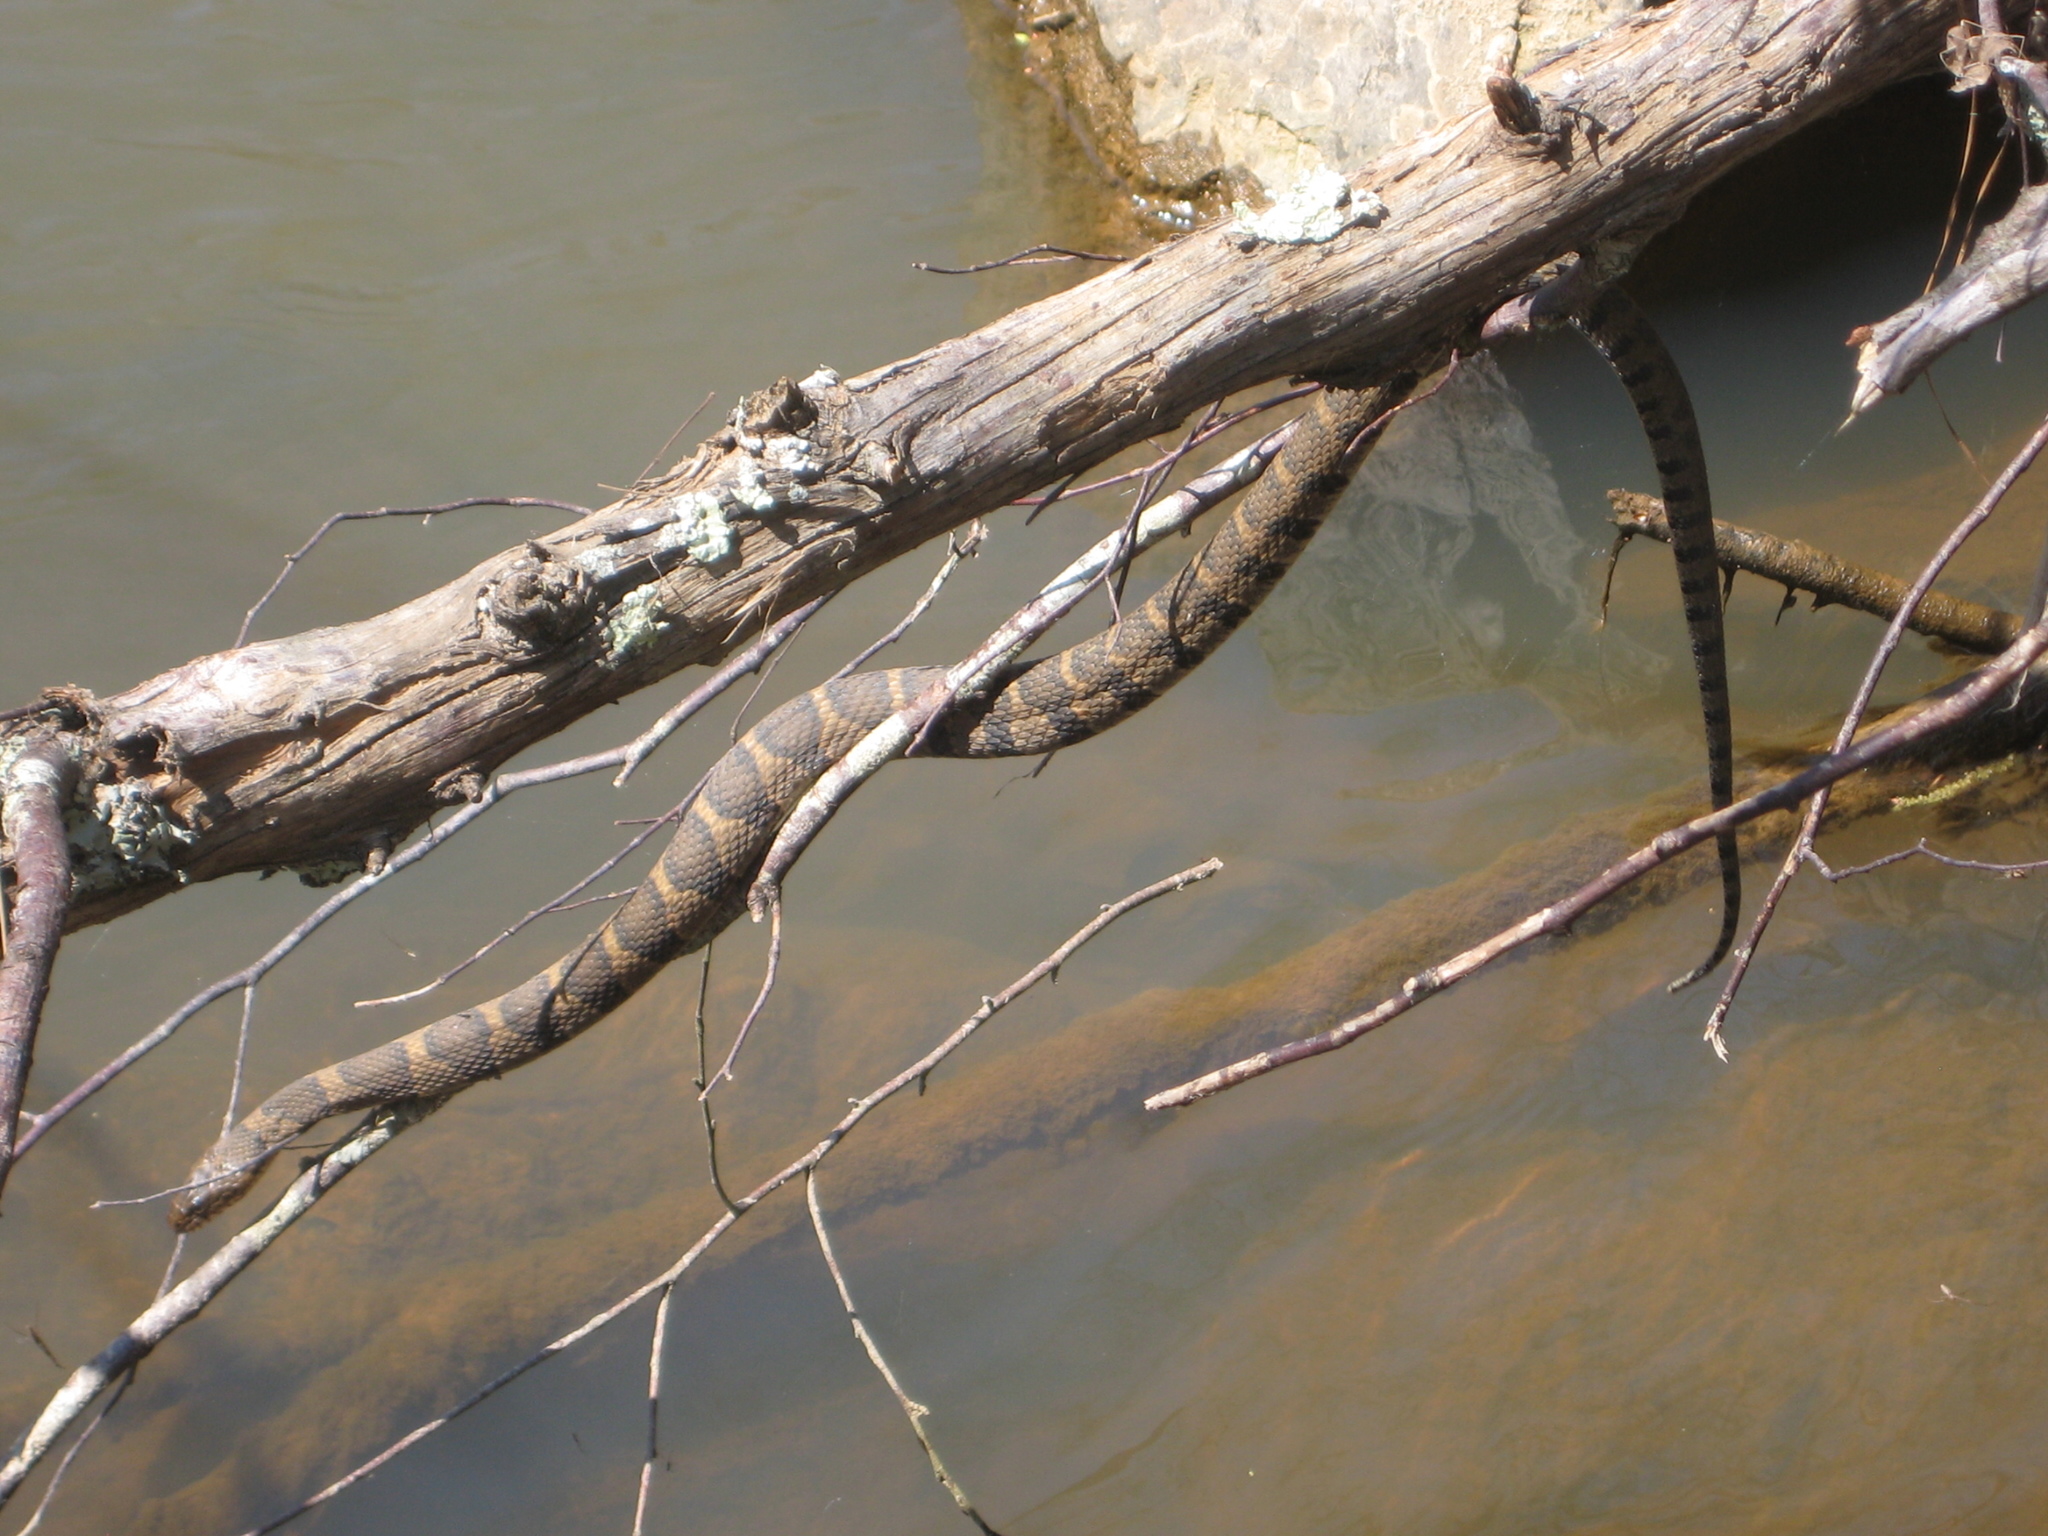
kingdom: Animalia
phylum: Chordata
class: Squamata
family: Colubridae
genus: Nerodia
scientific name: Nerodia sipedon
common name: Northern water snake
